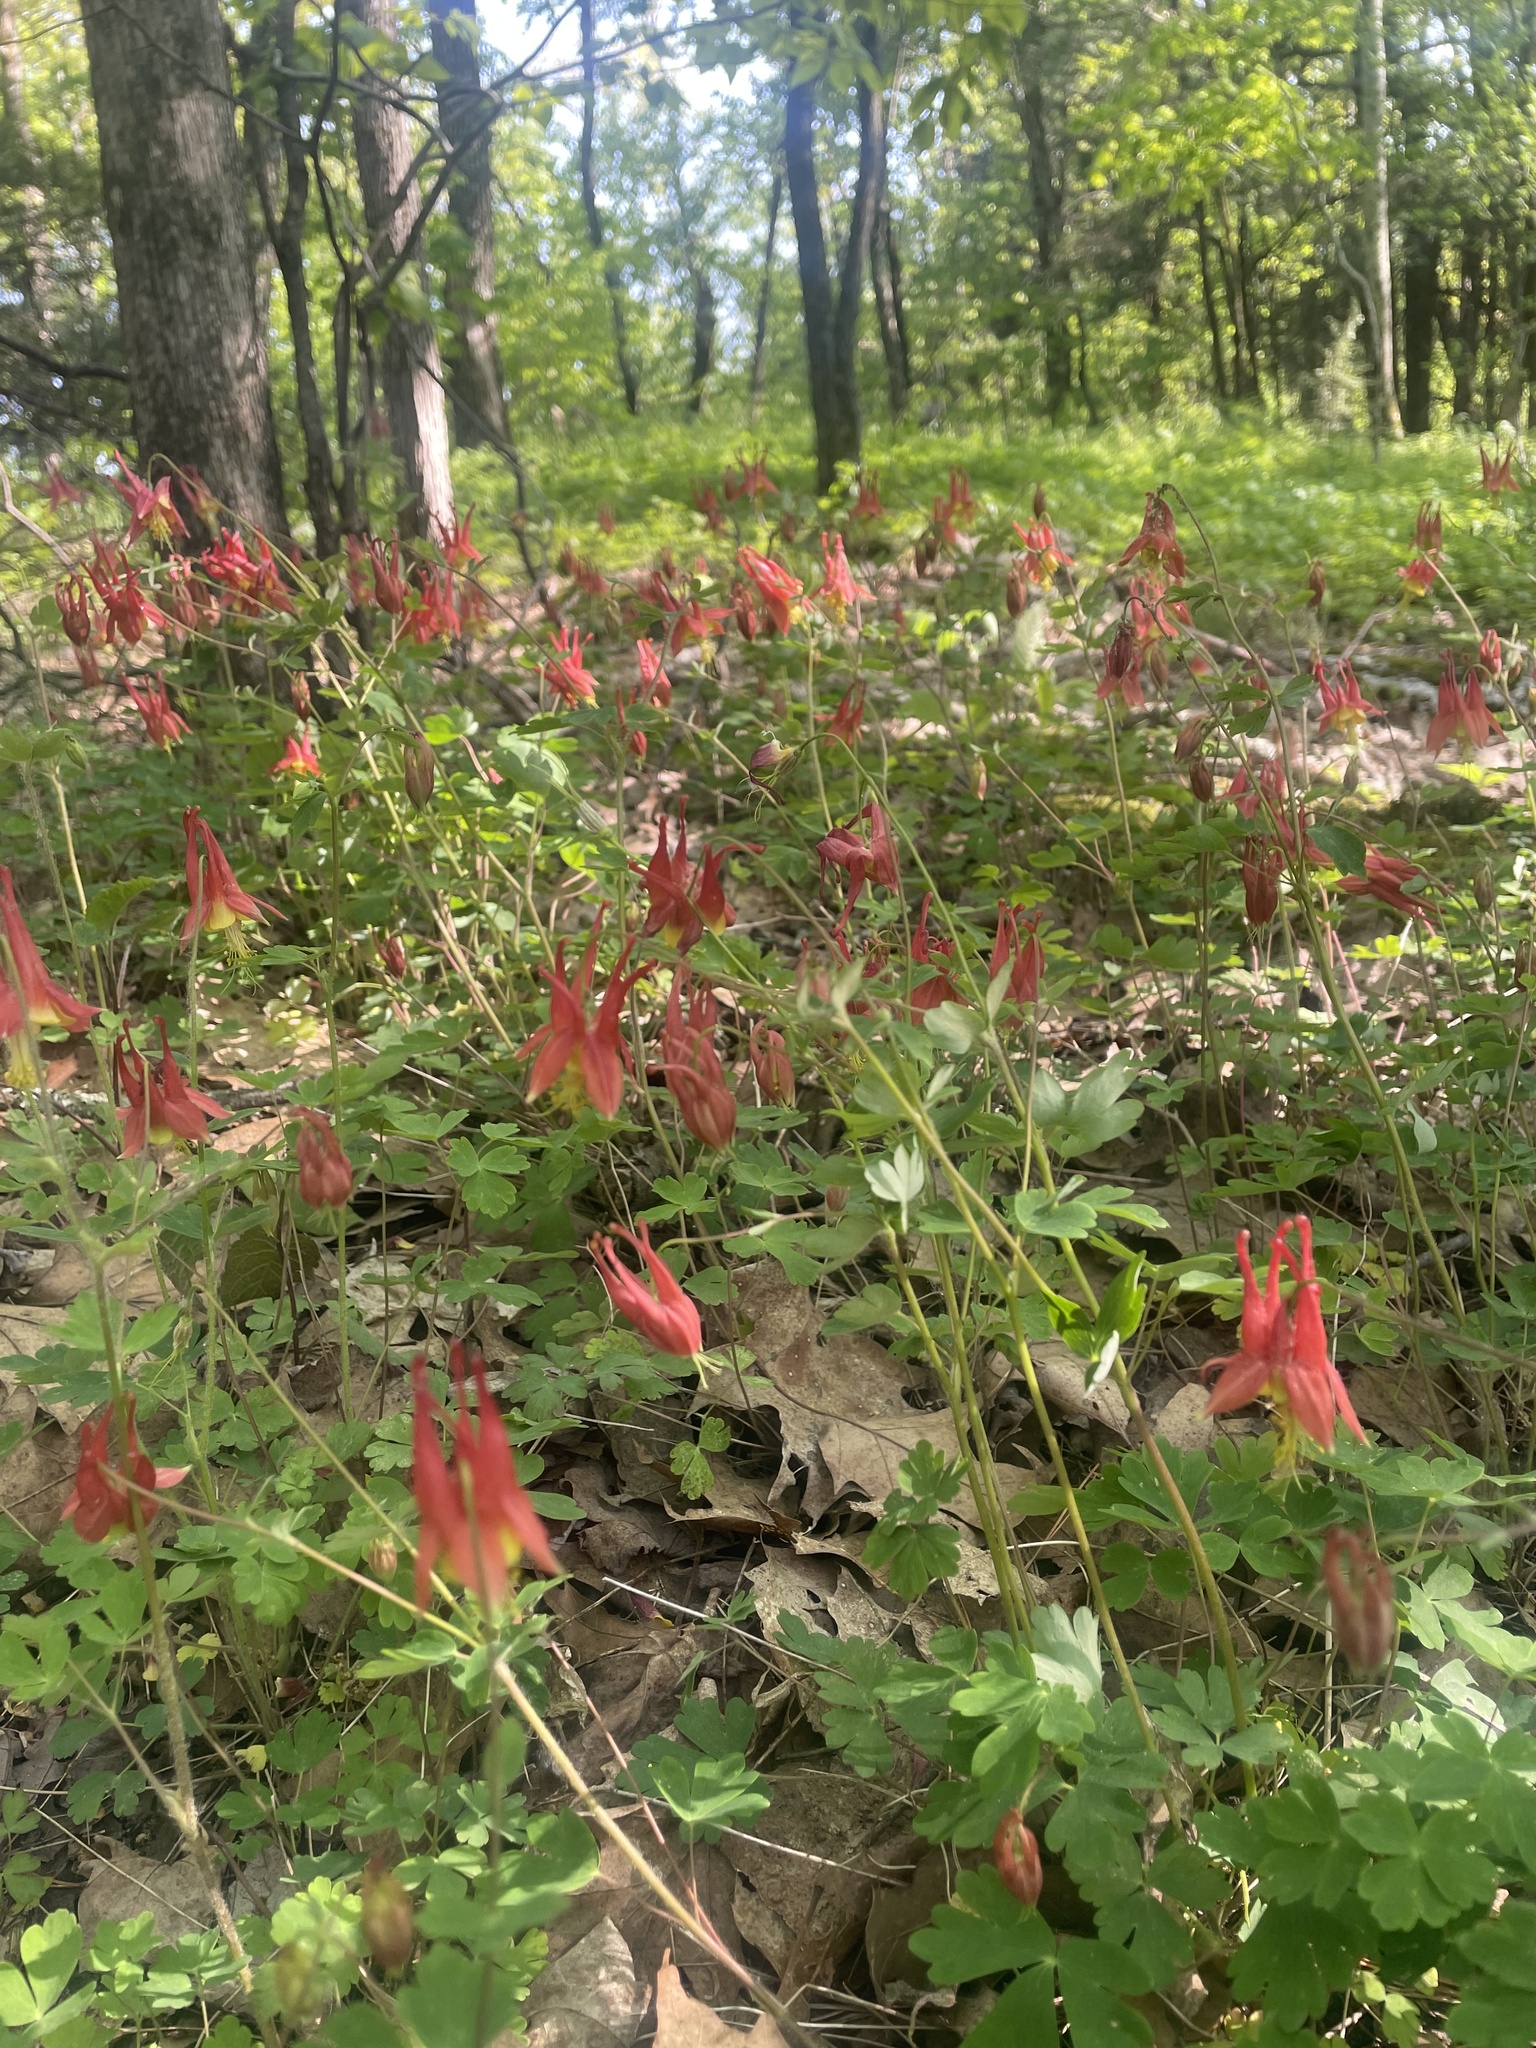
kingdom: Plantae
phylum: Tracheophyta
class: Magnoliopsida
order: Ranunculales
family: Ranunculaceae
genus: Aquilegia
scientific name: Aquilegia canadensis
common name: American columbine
